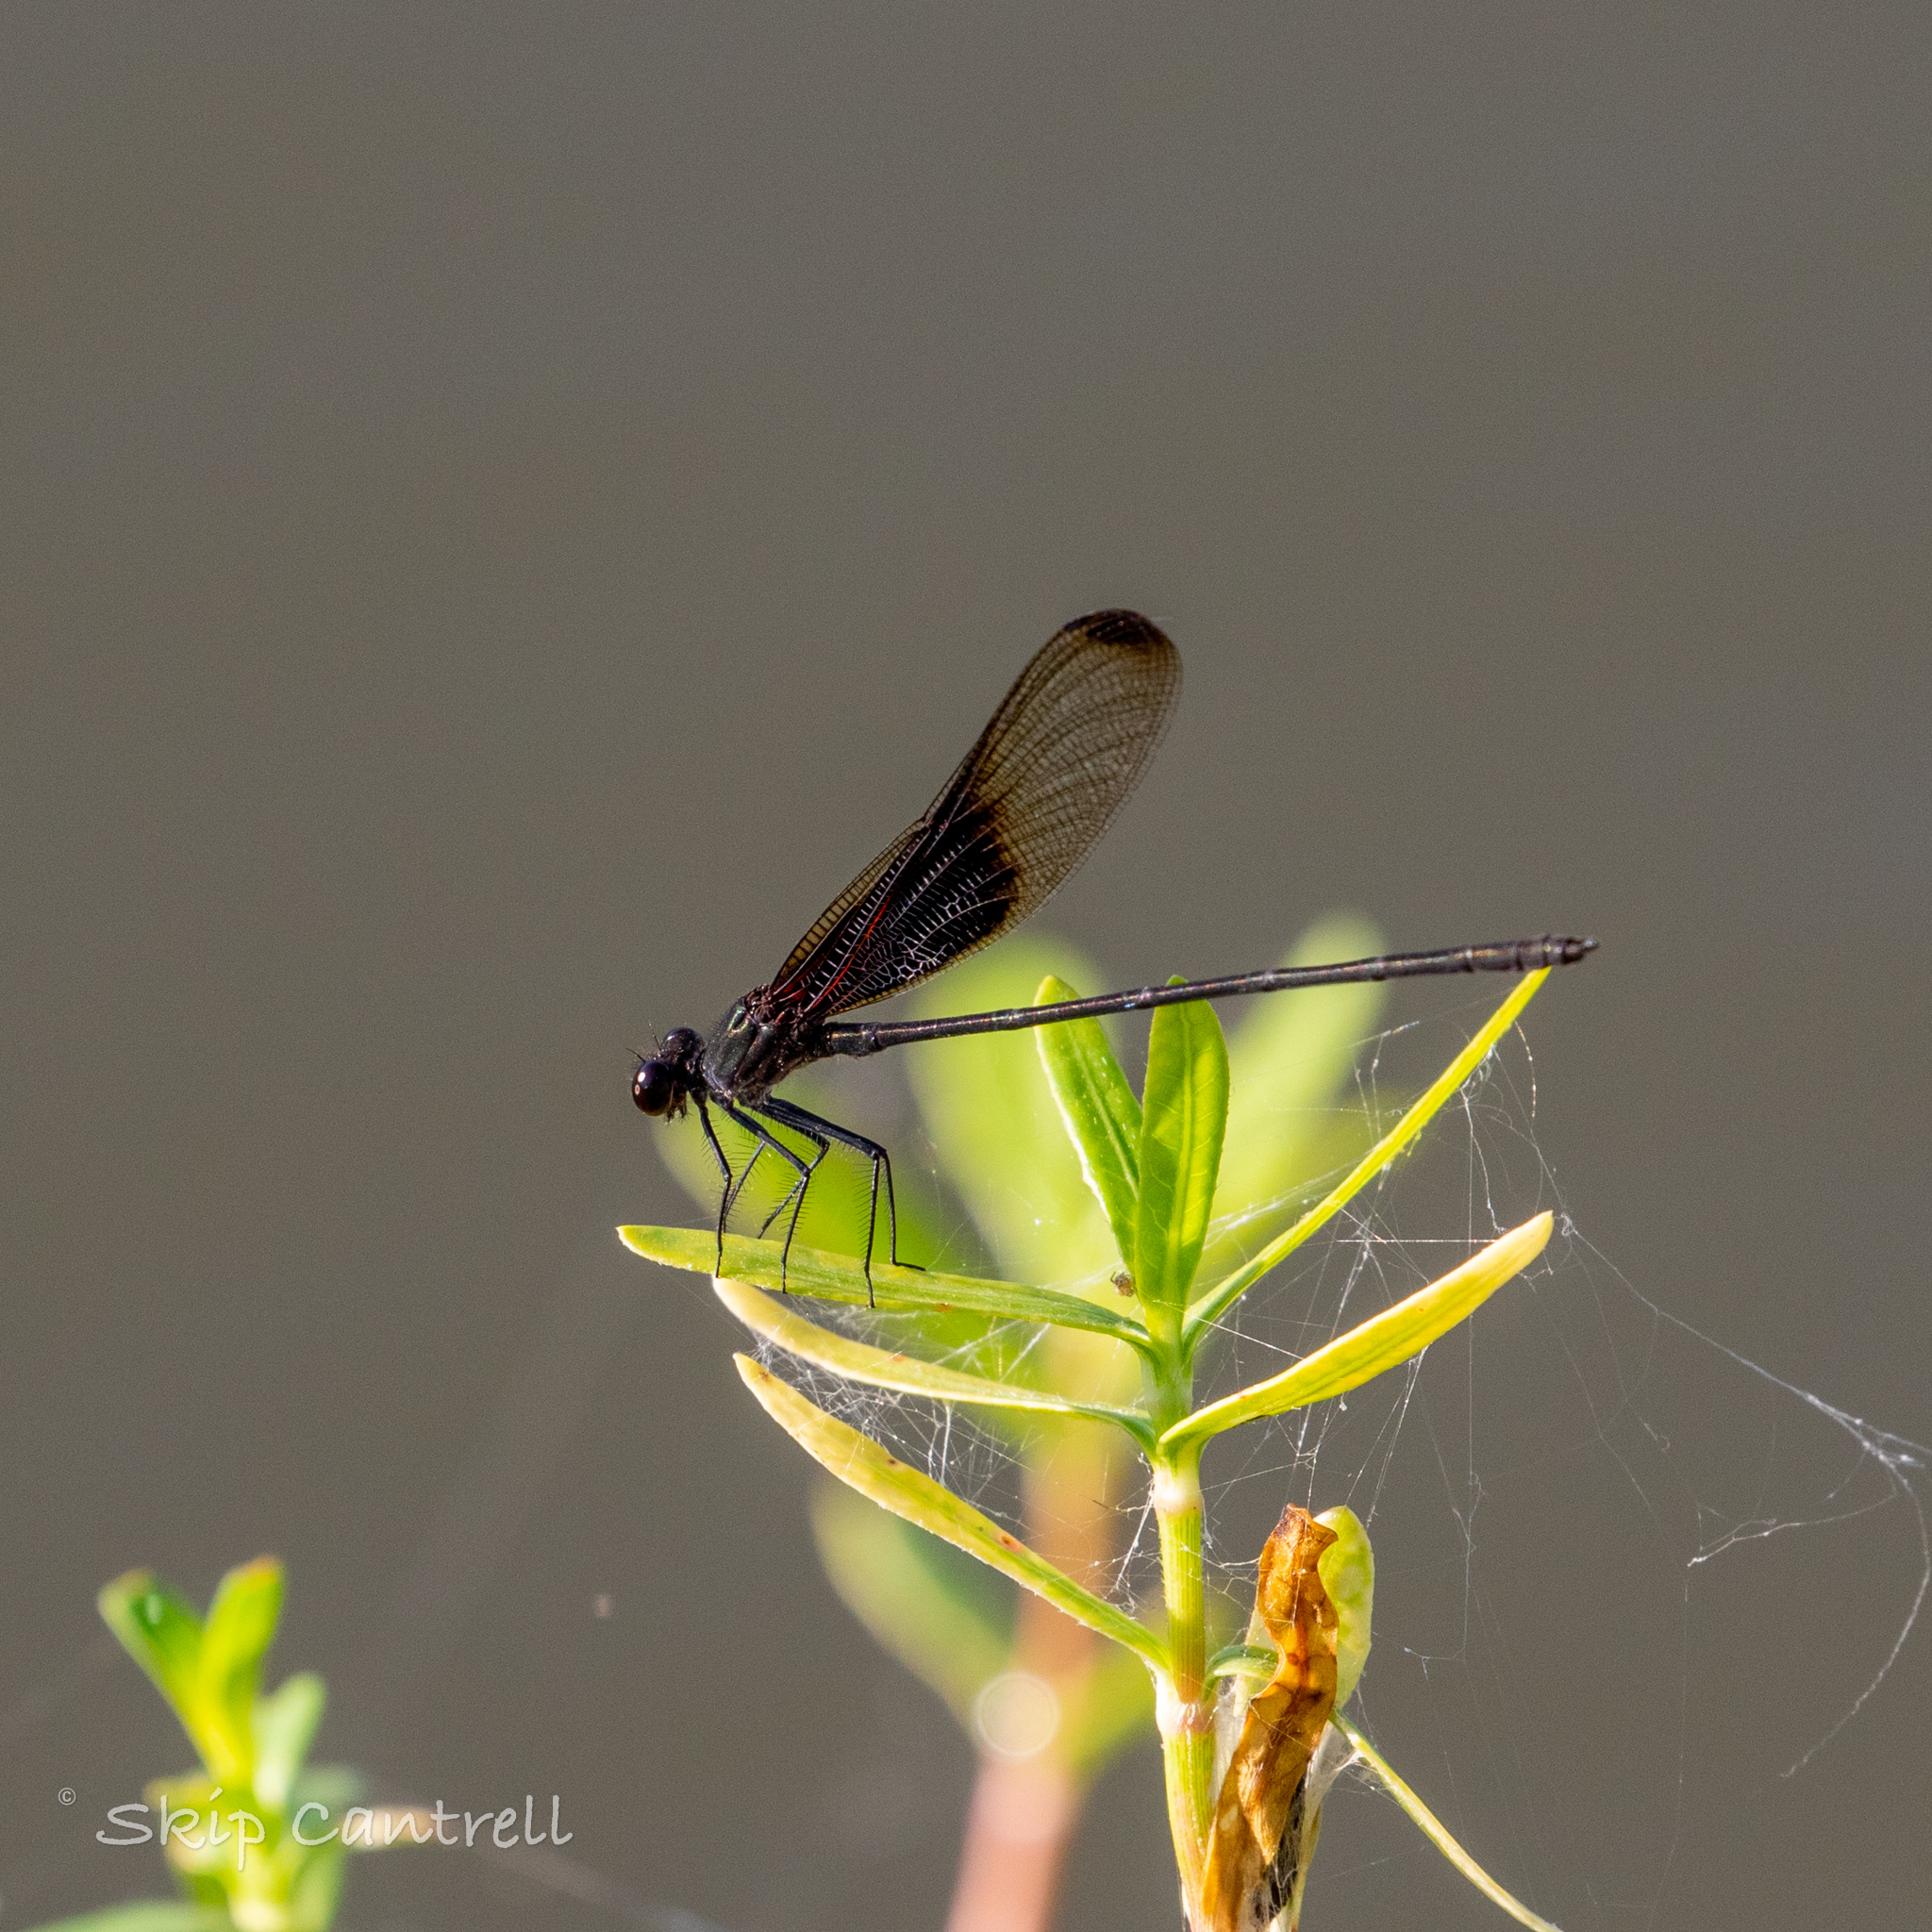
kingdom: Animalia
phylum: Arthropoda
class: Insecta
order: Odonata
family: Calopterygidae
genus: Hetaerina
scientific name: Hetaerina titia
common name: Smoky rubyspot
